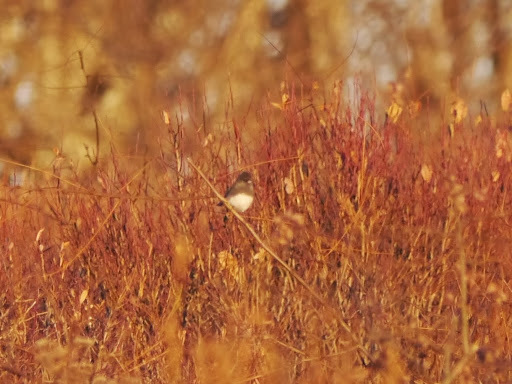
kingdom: Animalia
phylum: Chordata
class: Aves
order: Passeriformes
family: Passerellidae
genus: Junco
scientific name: Junco hyemalis
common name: Dark-eyed junco
